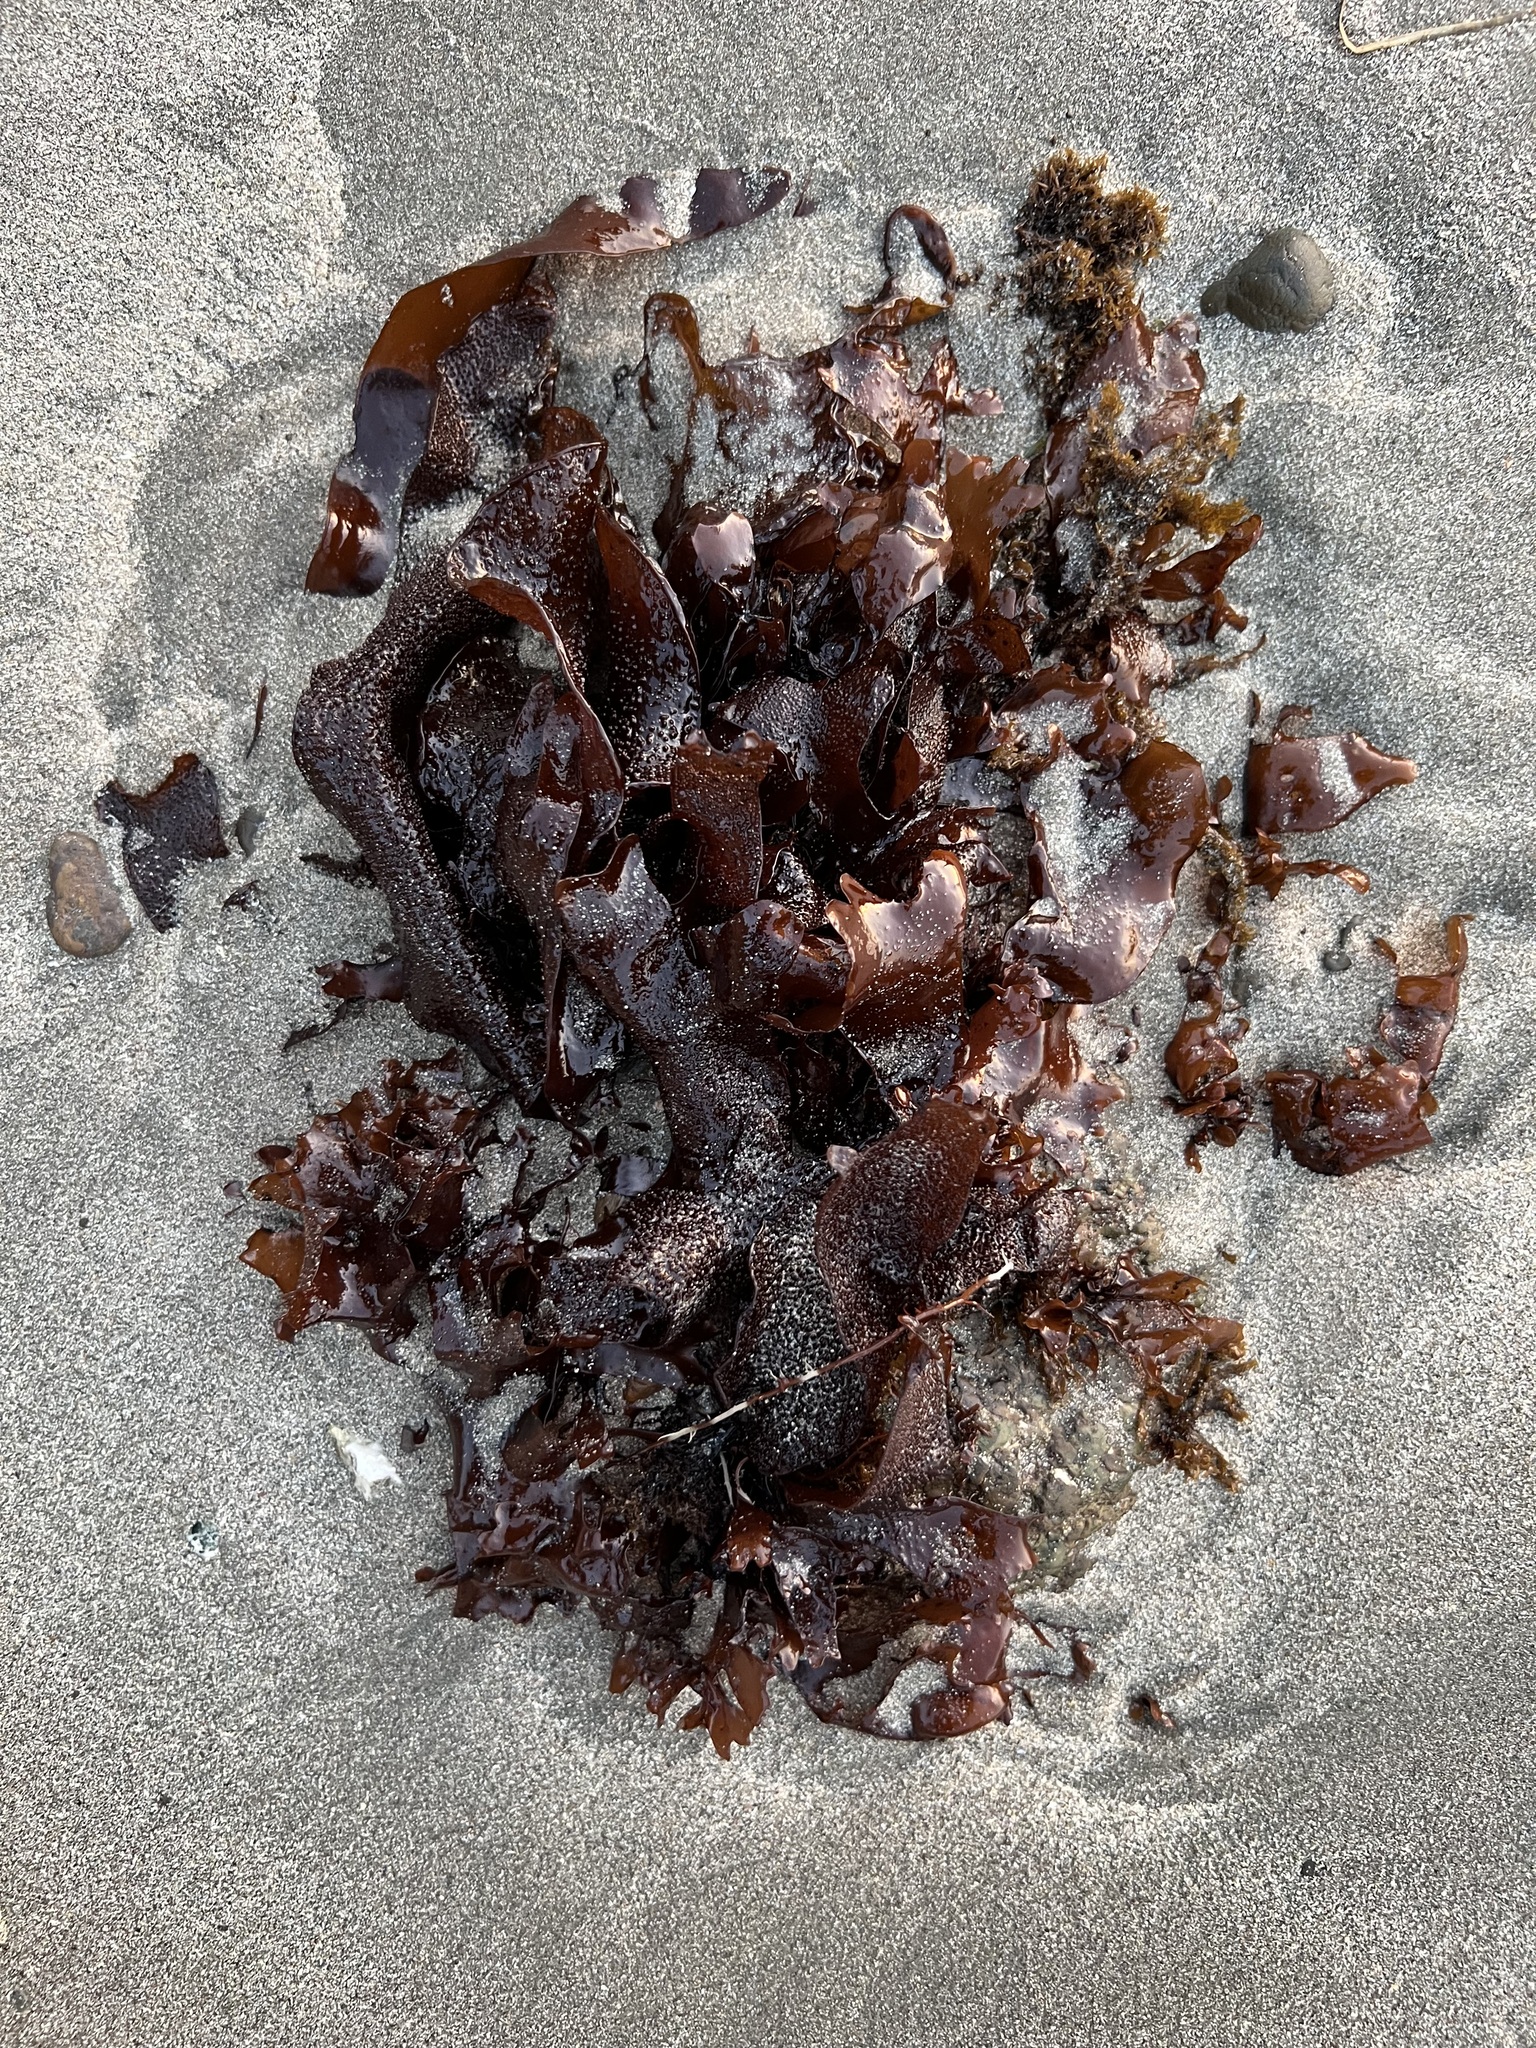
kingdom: Plantae
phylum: Rhodophyta
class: Florideophyceae
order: Gigartinales
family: Phyllophoraceae
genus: Mastocarpus
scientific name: Mastocarpus papillatus
